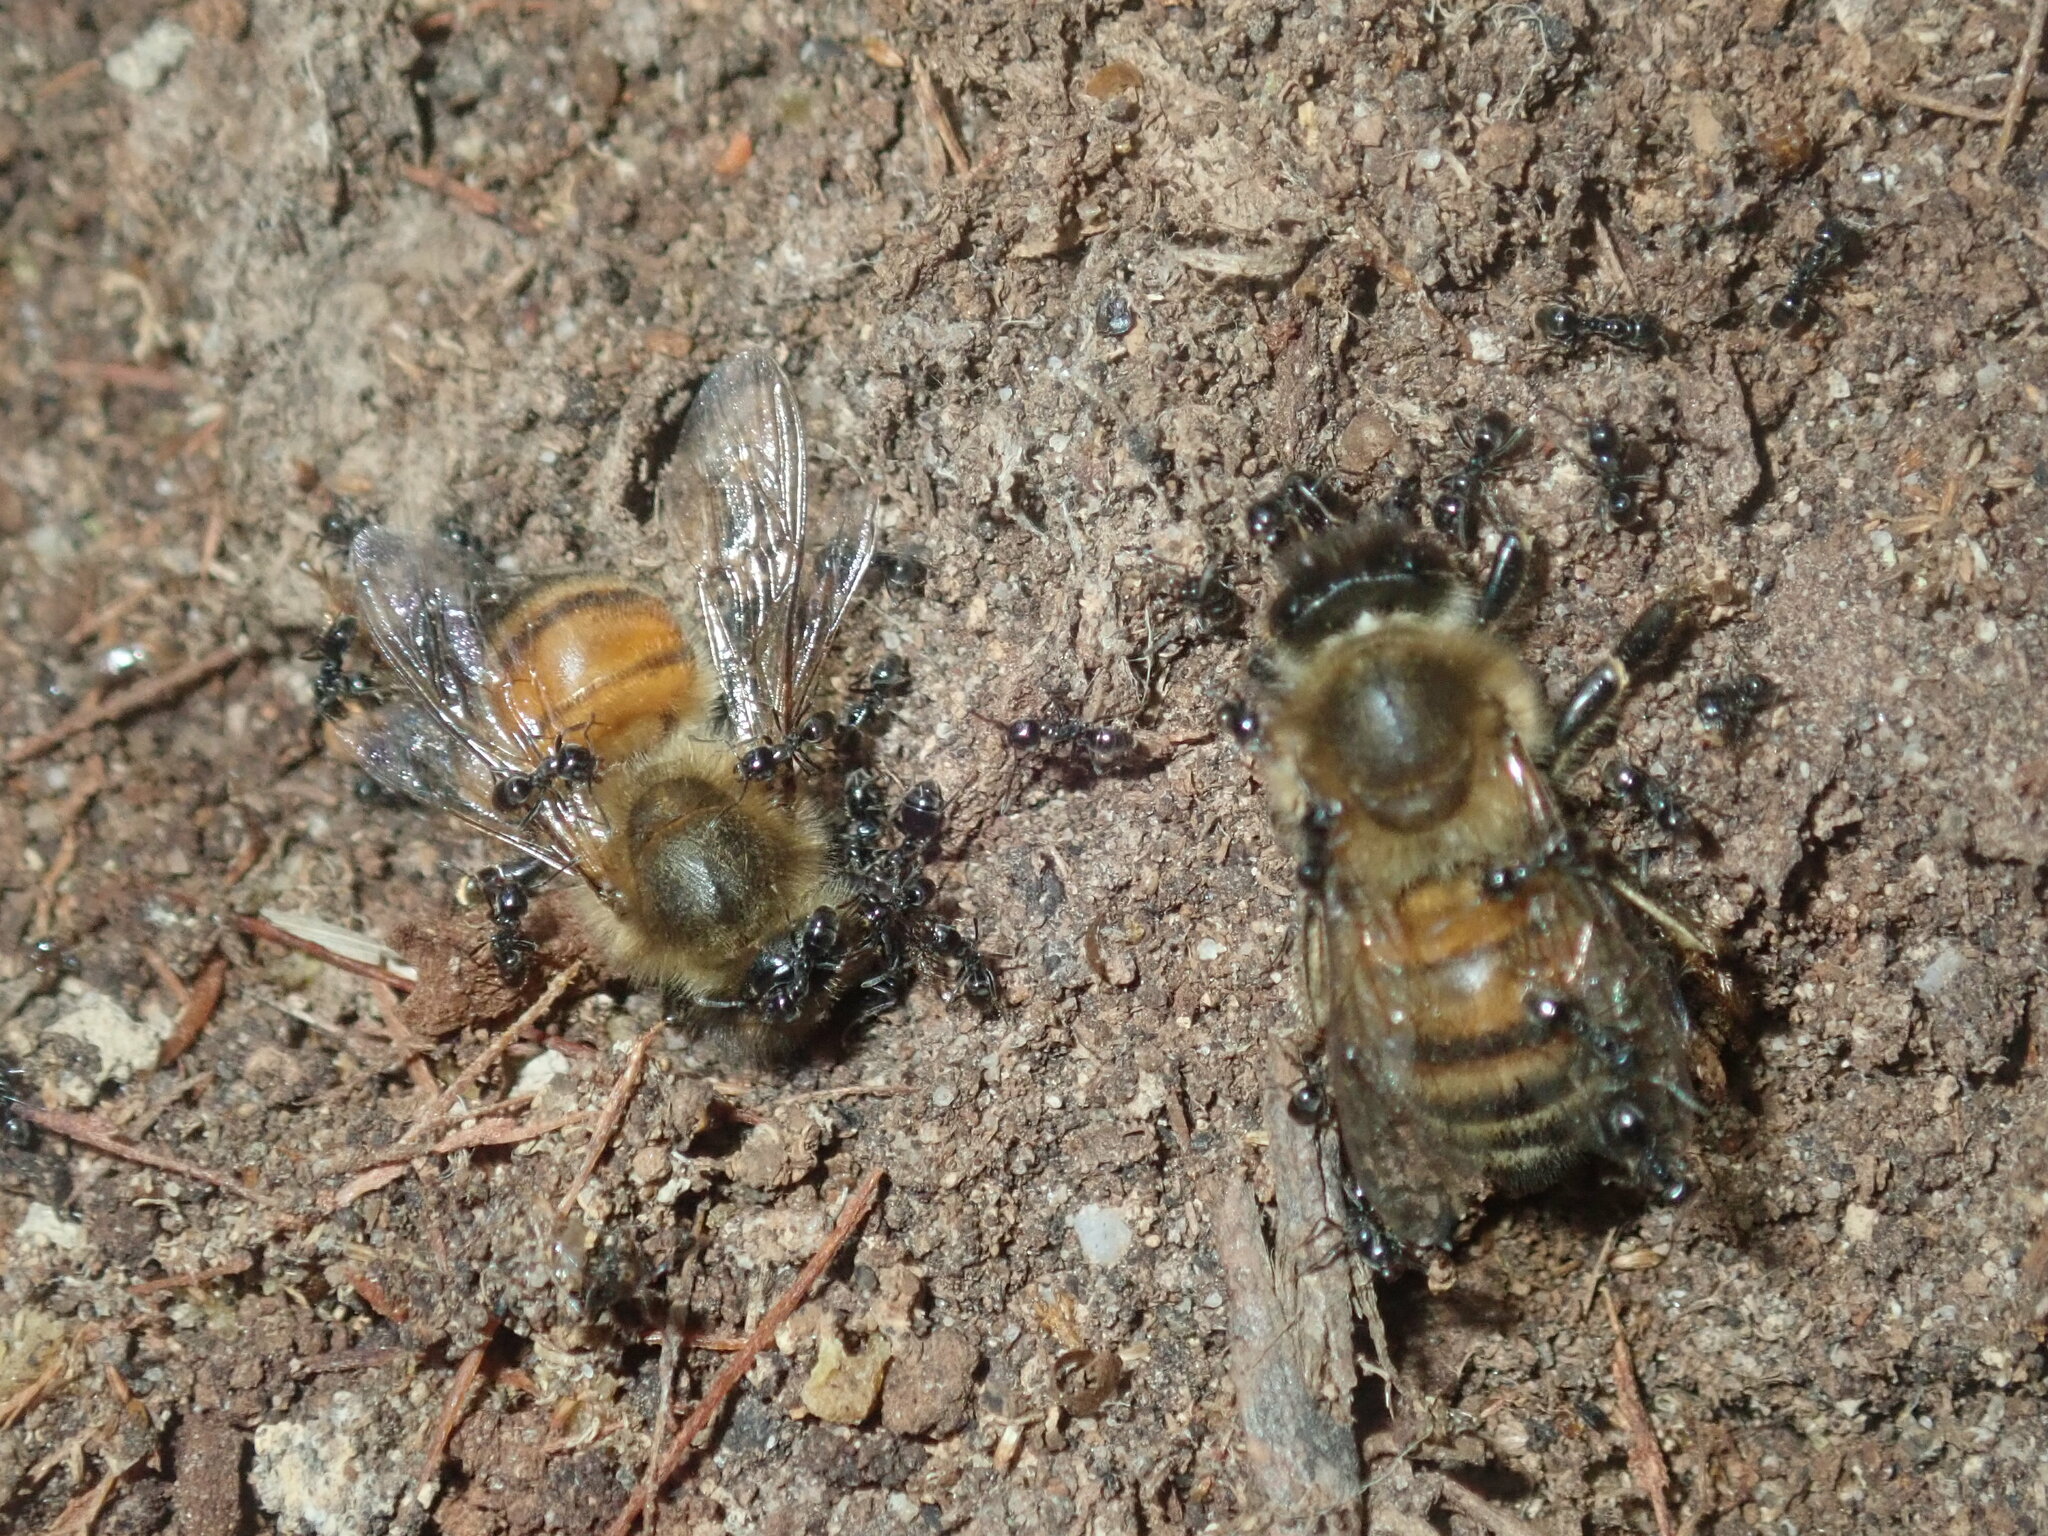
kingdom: Animalia
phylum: Arthropoda
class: Insecta
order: Hymenoptera
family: Apidae
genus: Apis
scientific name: Apis mellifera
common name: Honey bee
